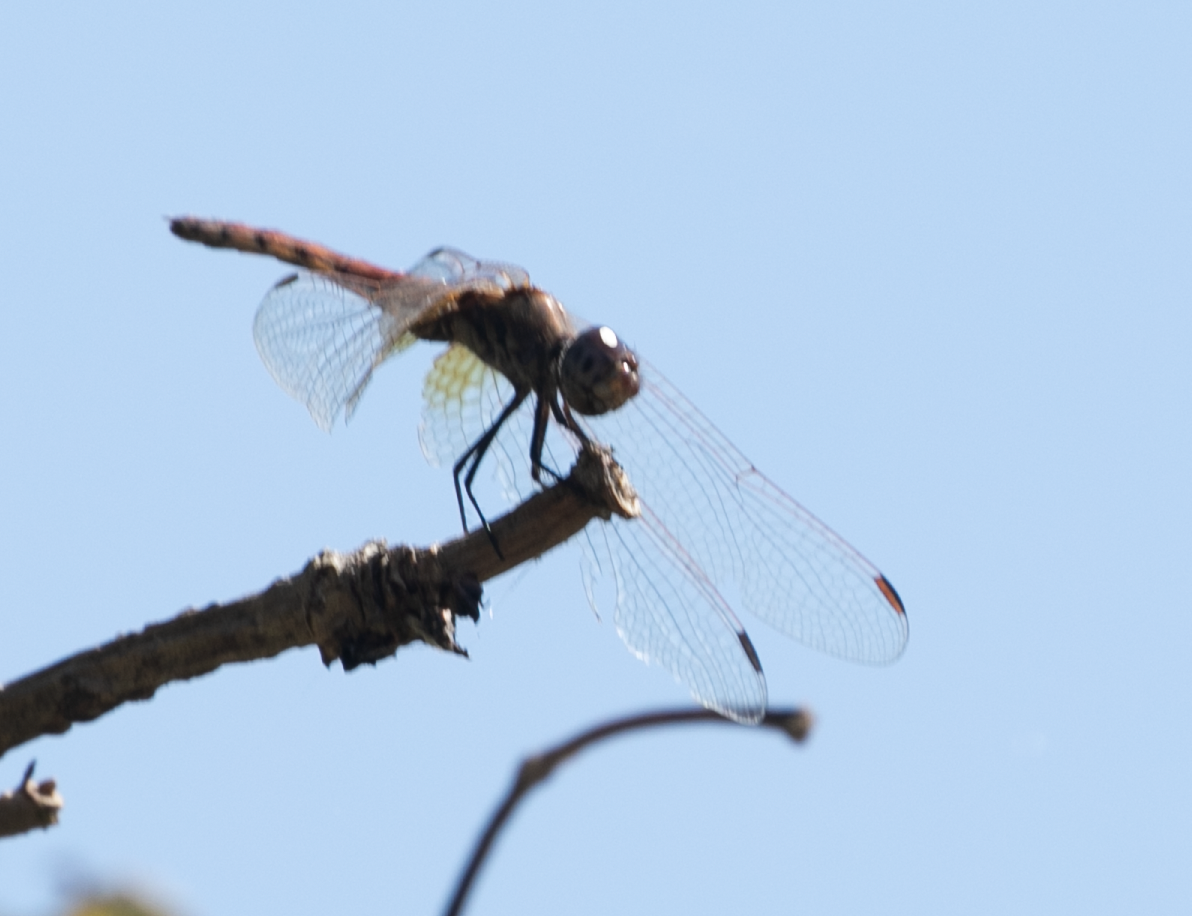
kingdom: Animalia
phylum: Arthropoda
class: Insecta
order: Odonata
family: Libellulidae
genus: Trithemis
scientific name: Trithemis annulata
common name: Violet dropwing
